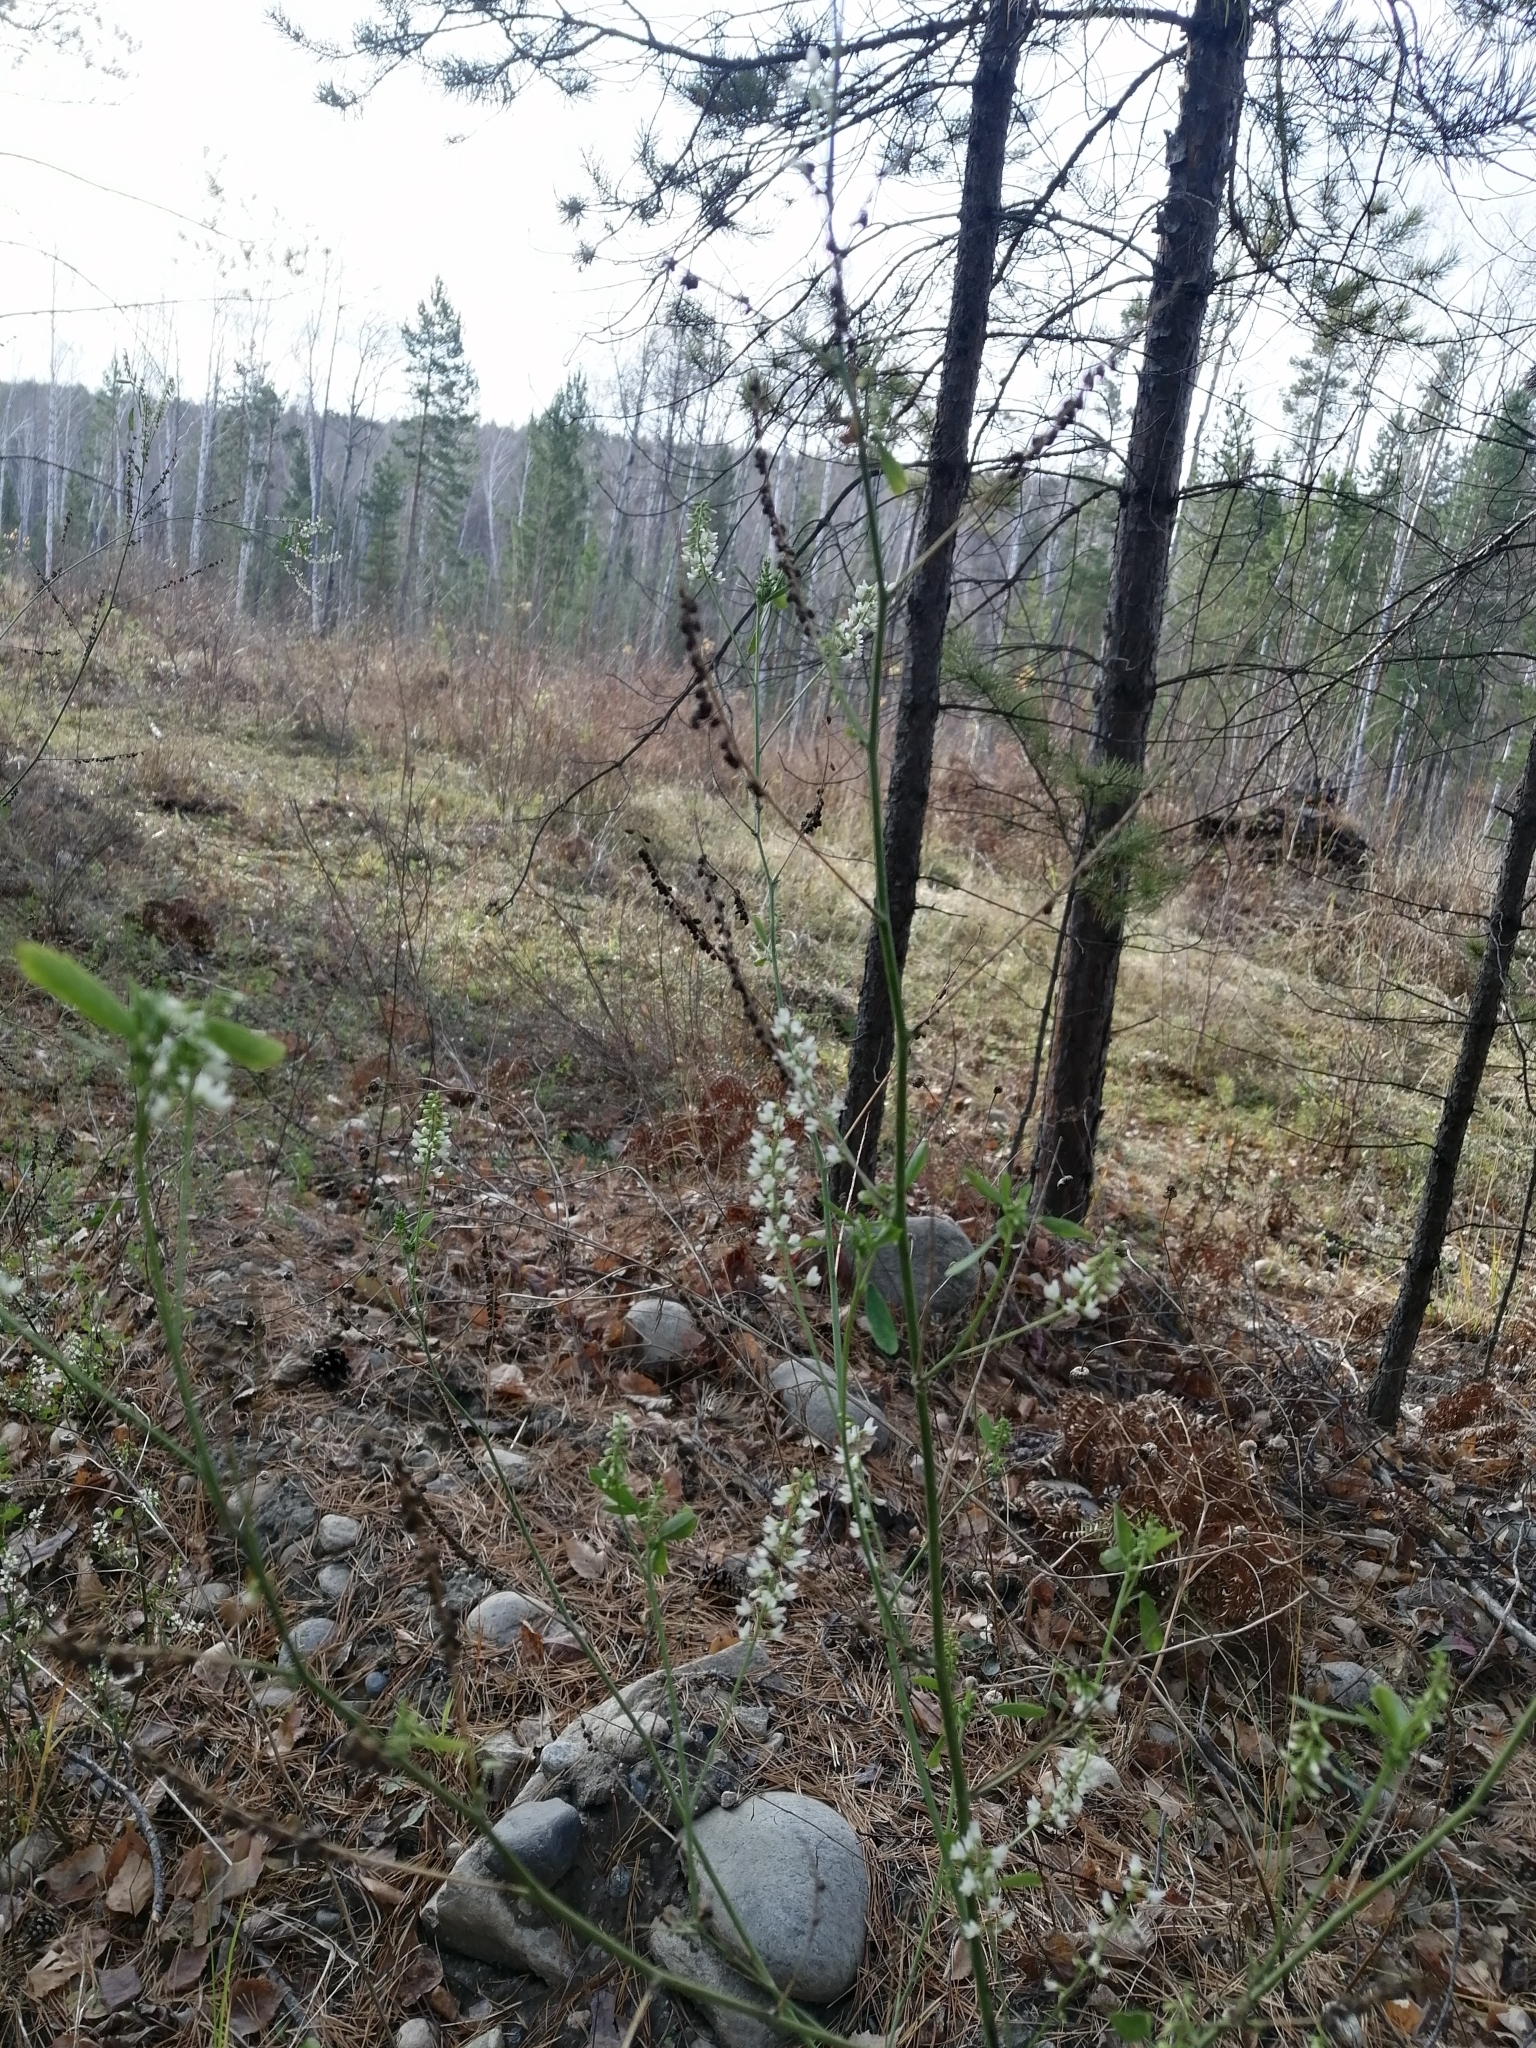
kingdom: Plantae
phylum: Tracheophyta
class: Magnoliopsida
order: Fabales
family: Fabaceae
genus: Melilotus
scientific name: Melilotus albus
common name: White melilot
